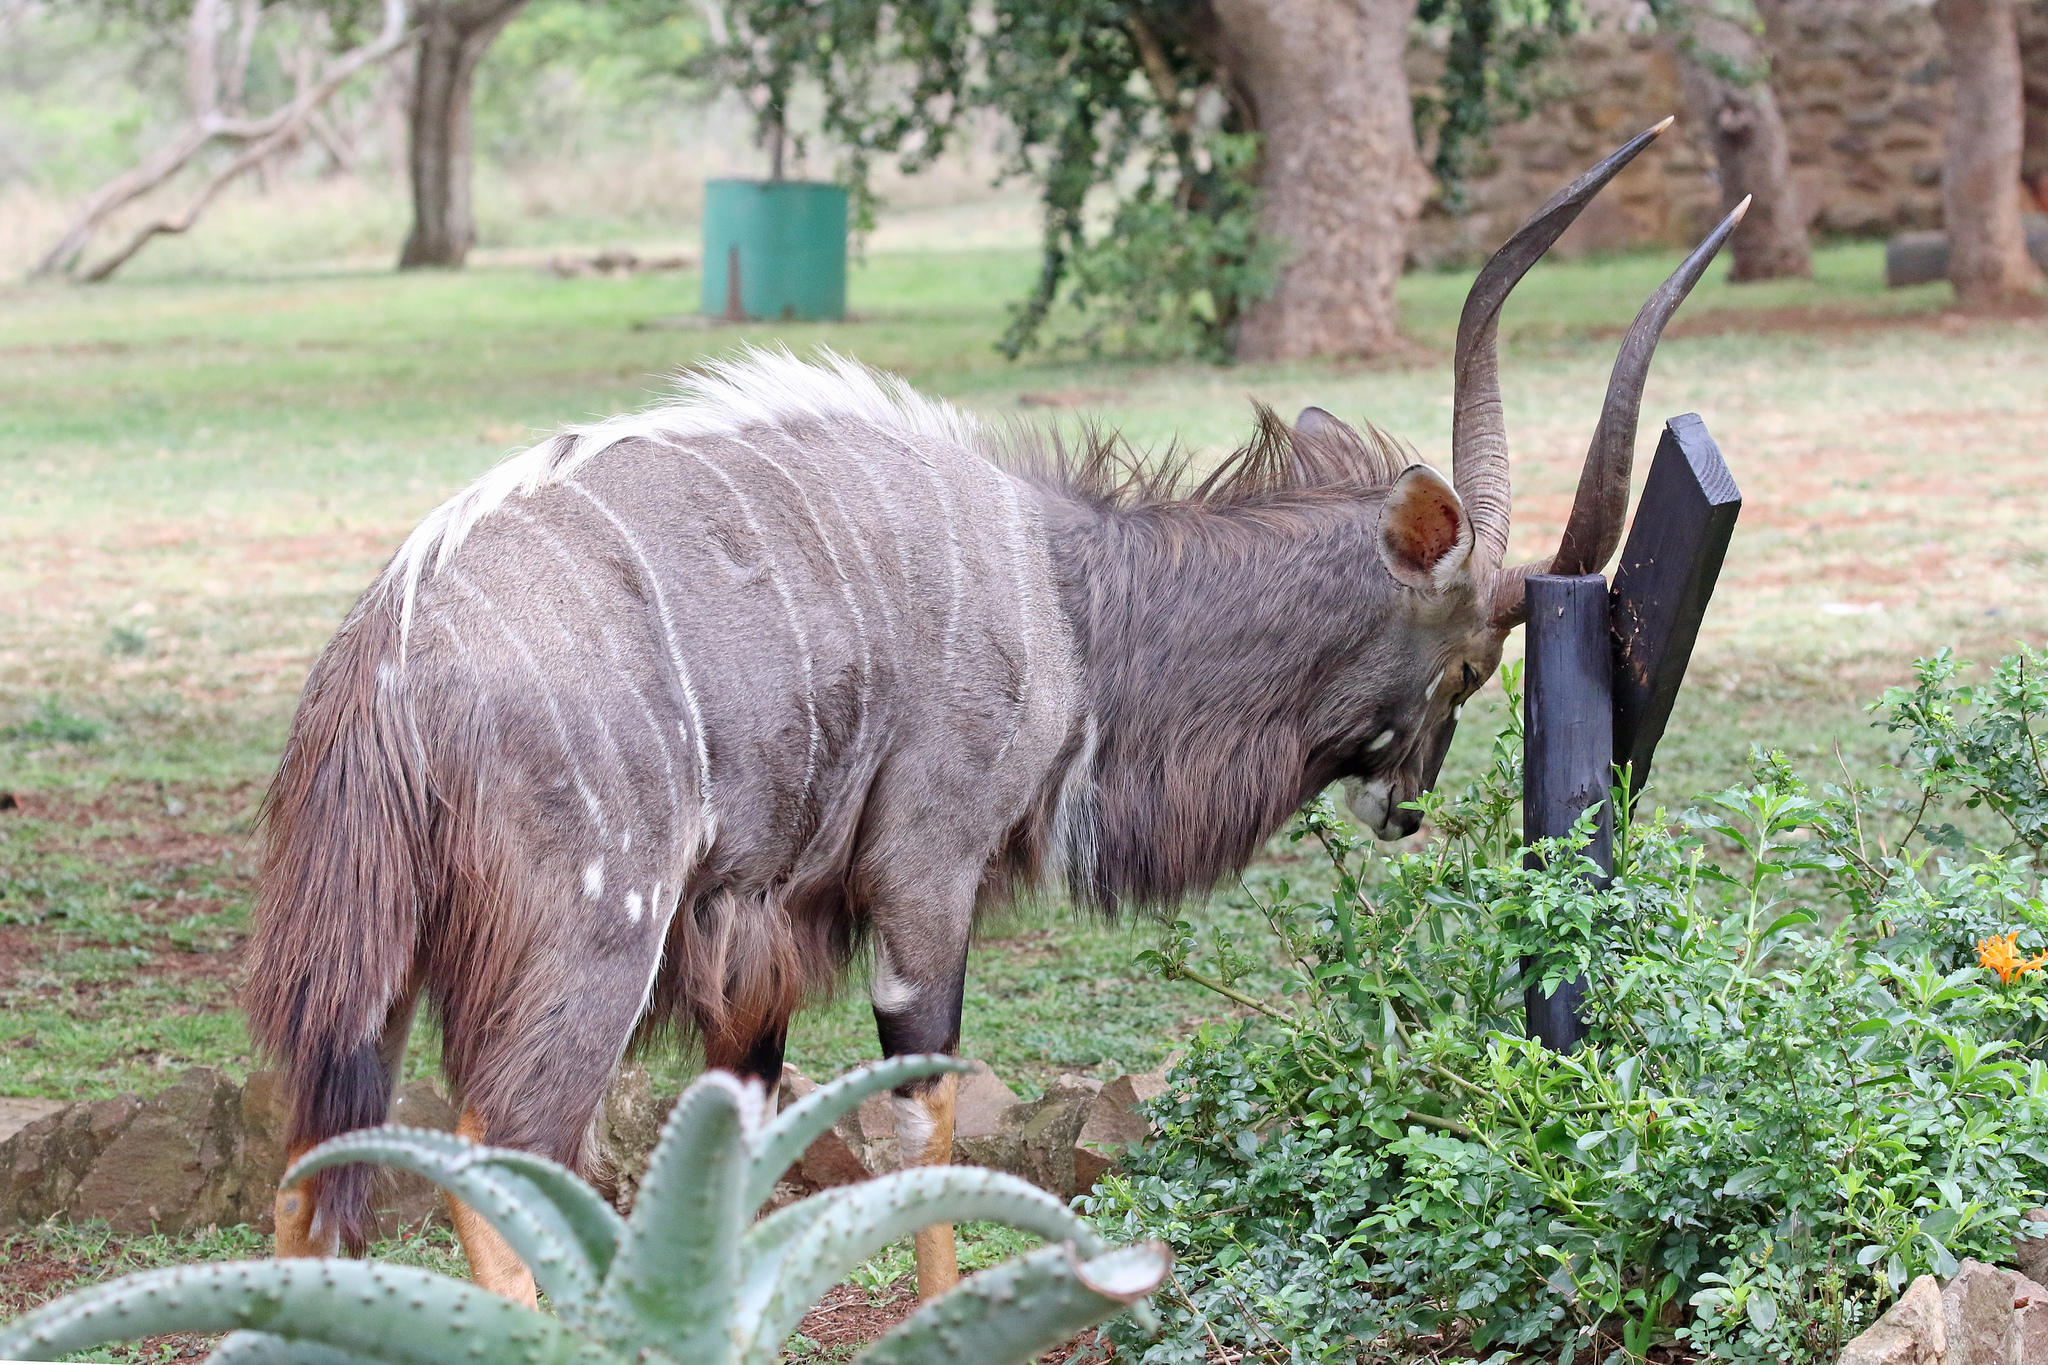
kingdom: Animalia
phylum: Chordata
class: Mammalia
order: Artiodactyla
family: Bovidae
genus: Tragelaphus
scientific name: Tragelaphus angasii
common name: Nyala
